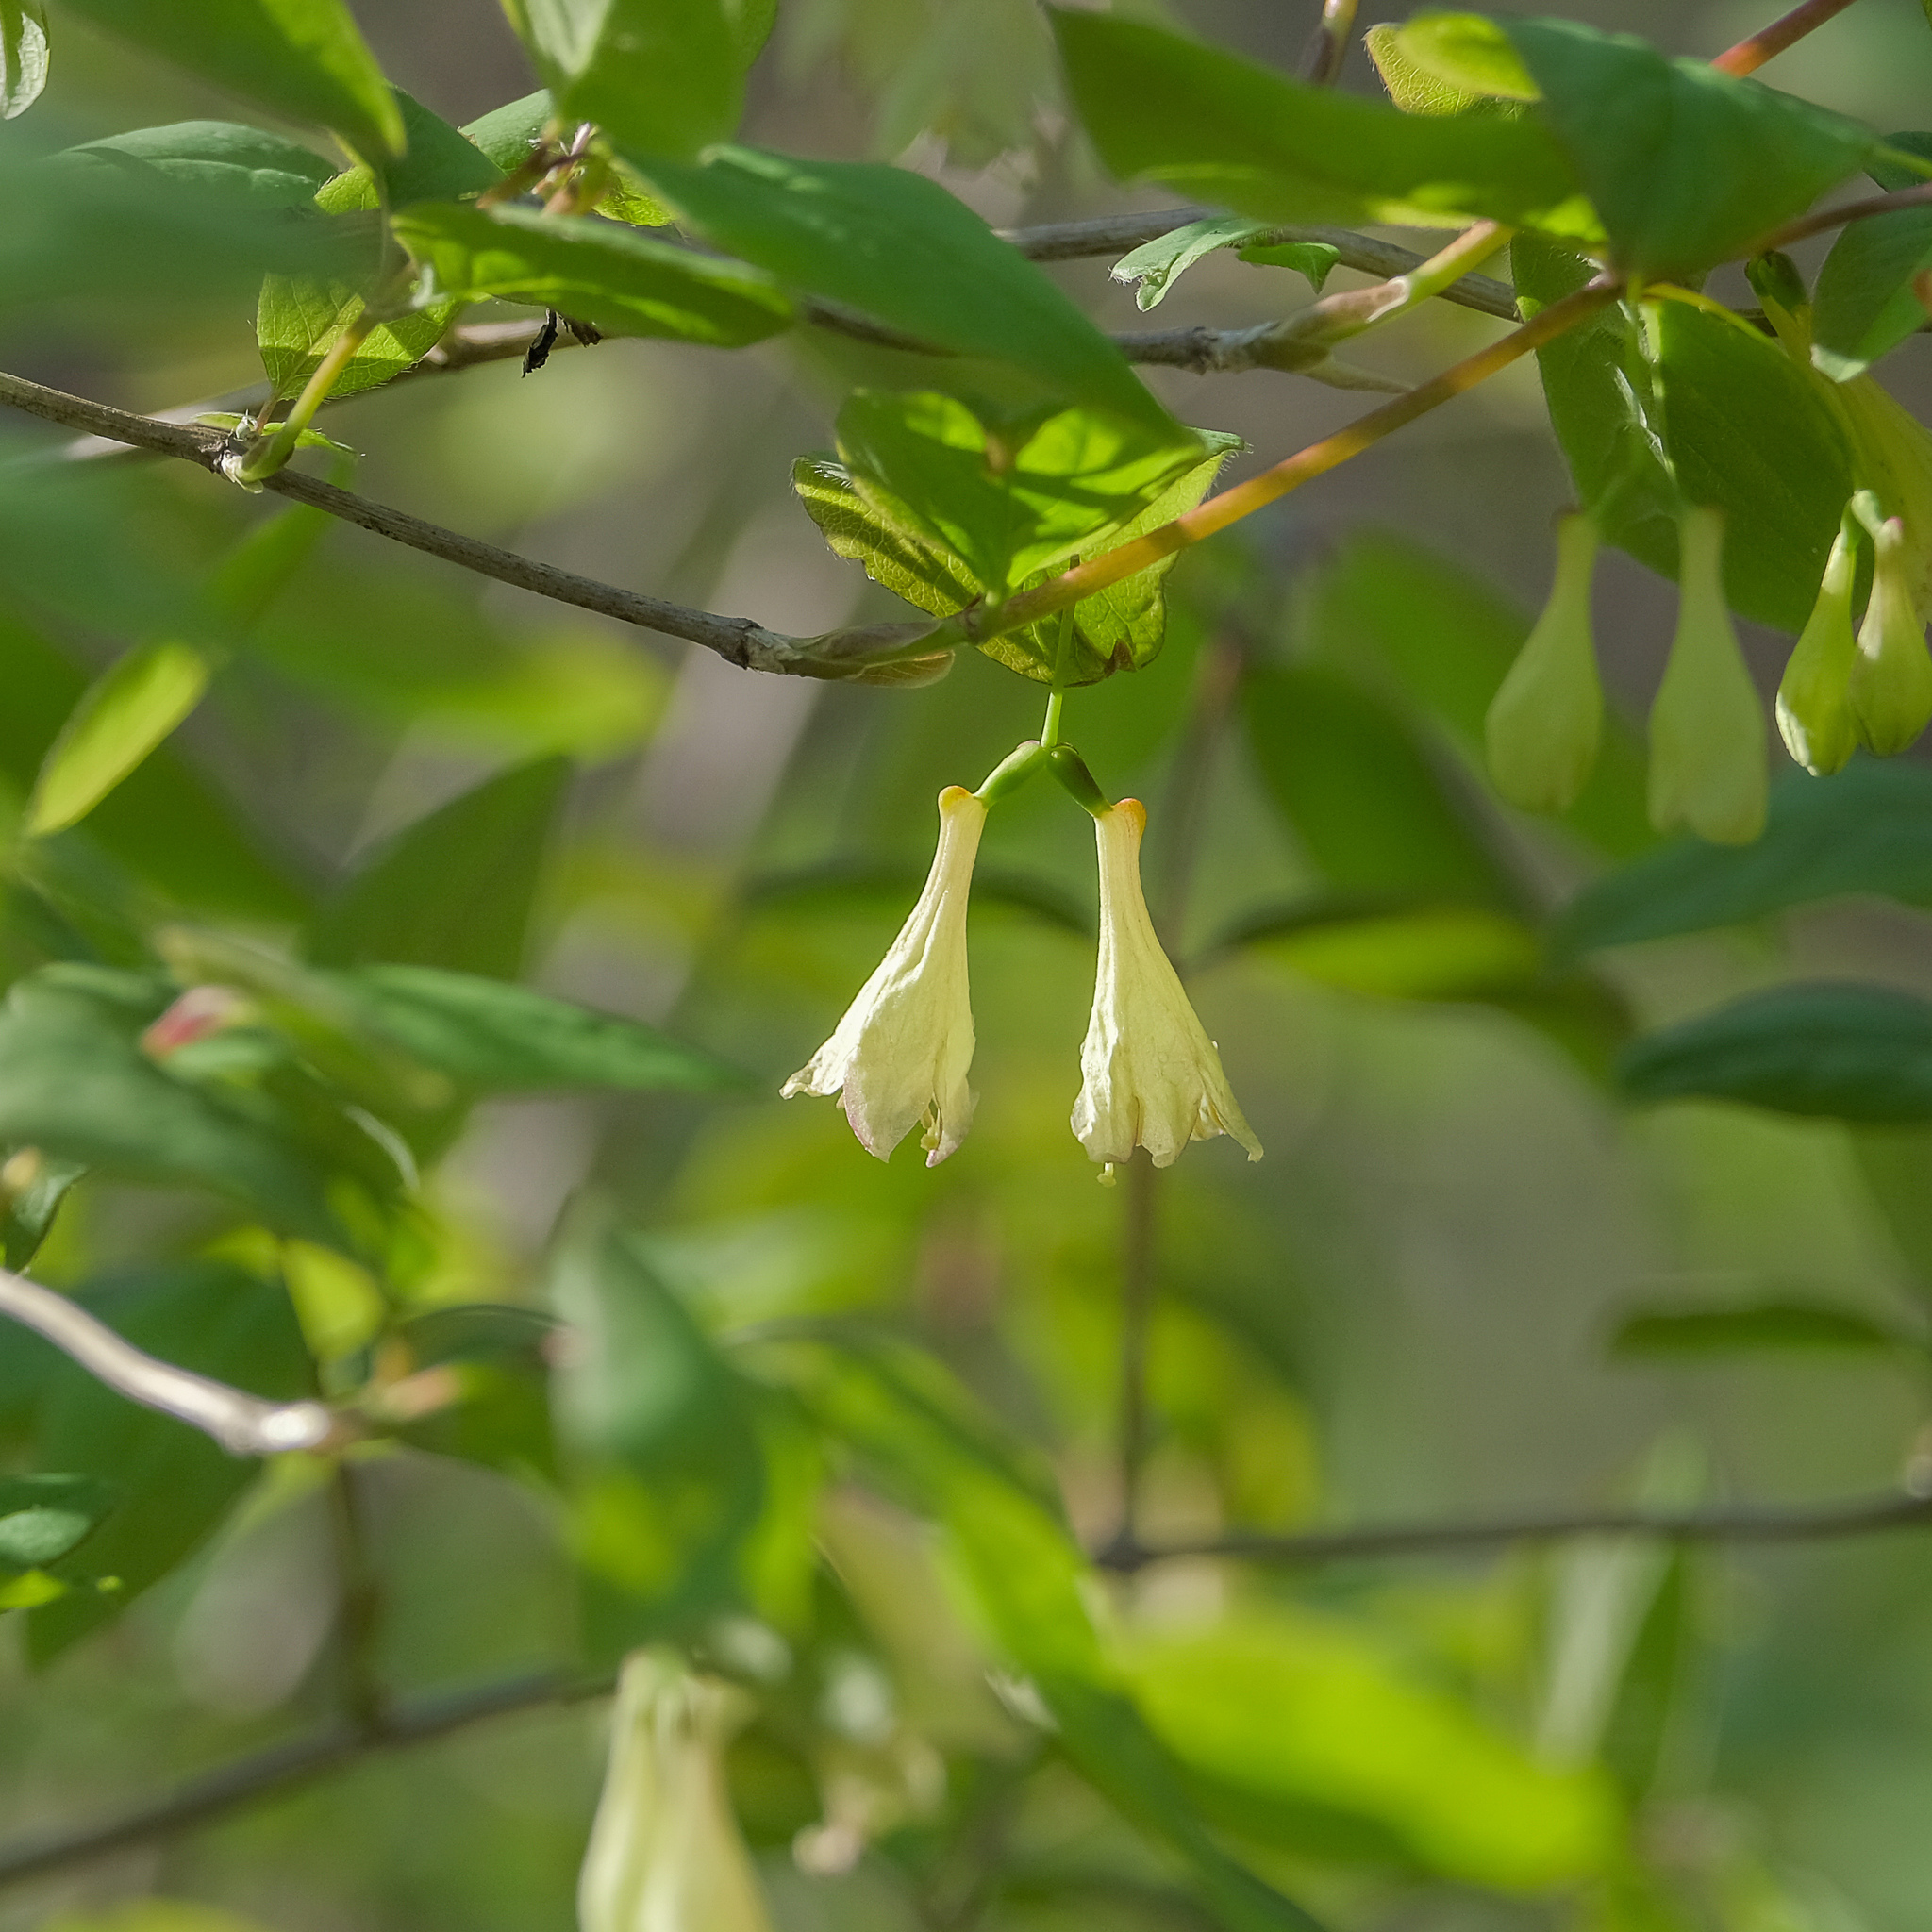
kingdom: Plantae
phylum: Tracheophyta
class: Magnoliopsida
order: Dipsacales
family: Caprifoliaceae
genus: Lonicera
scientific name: Lonicera canadensis
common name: American fly-honeysuckle
